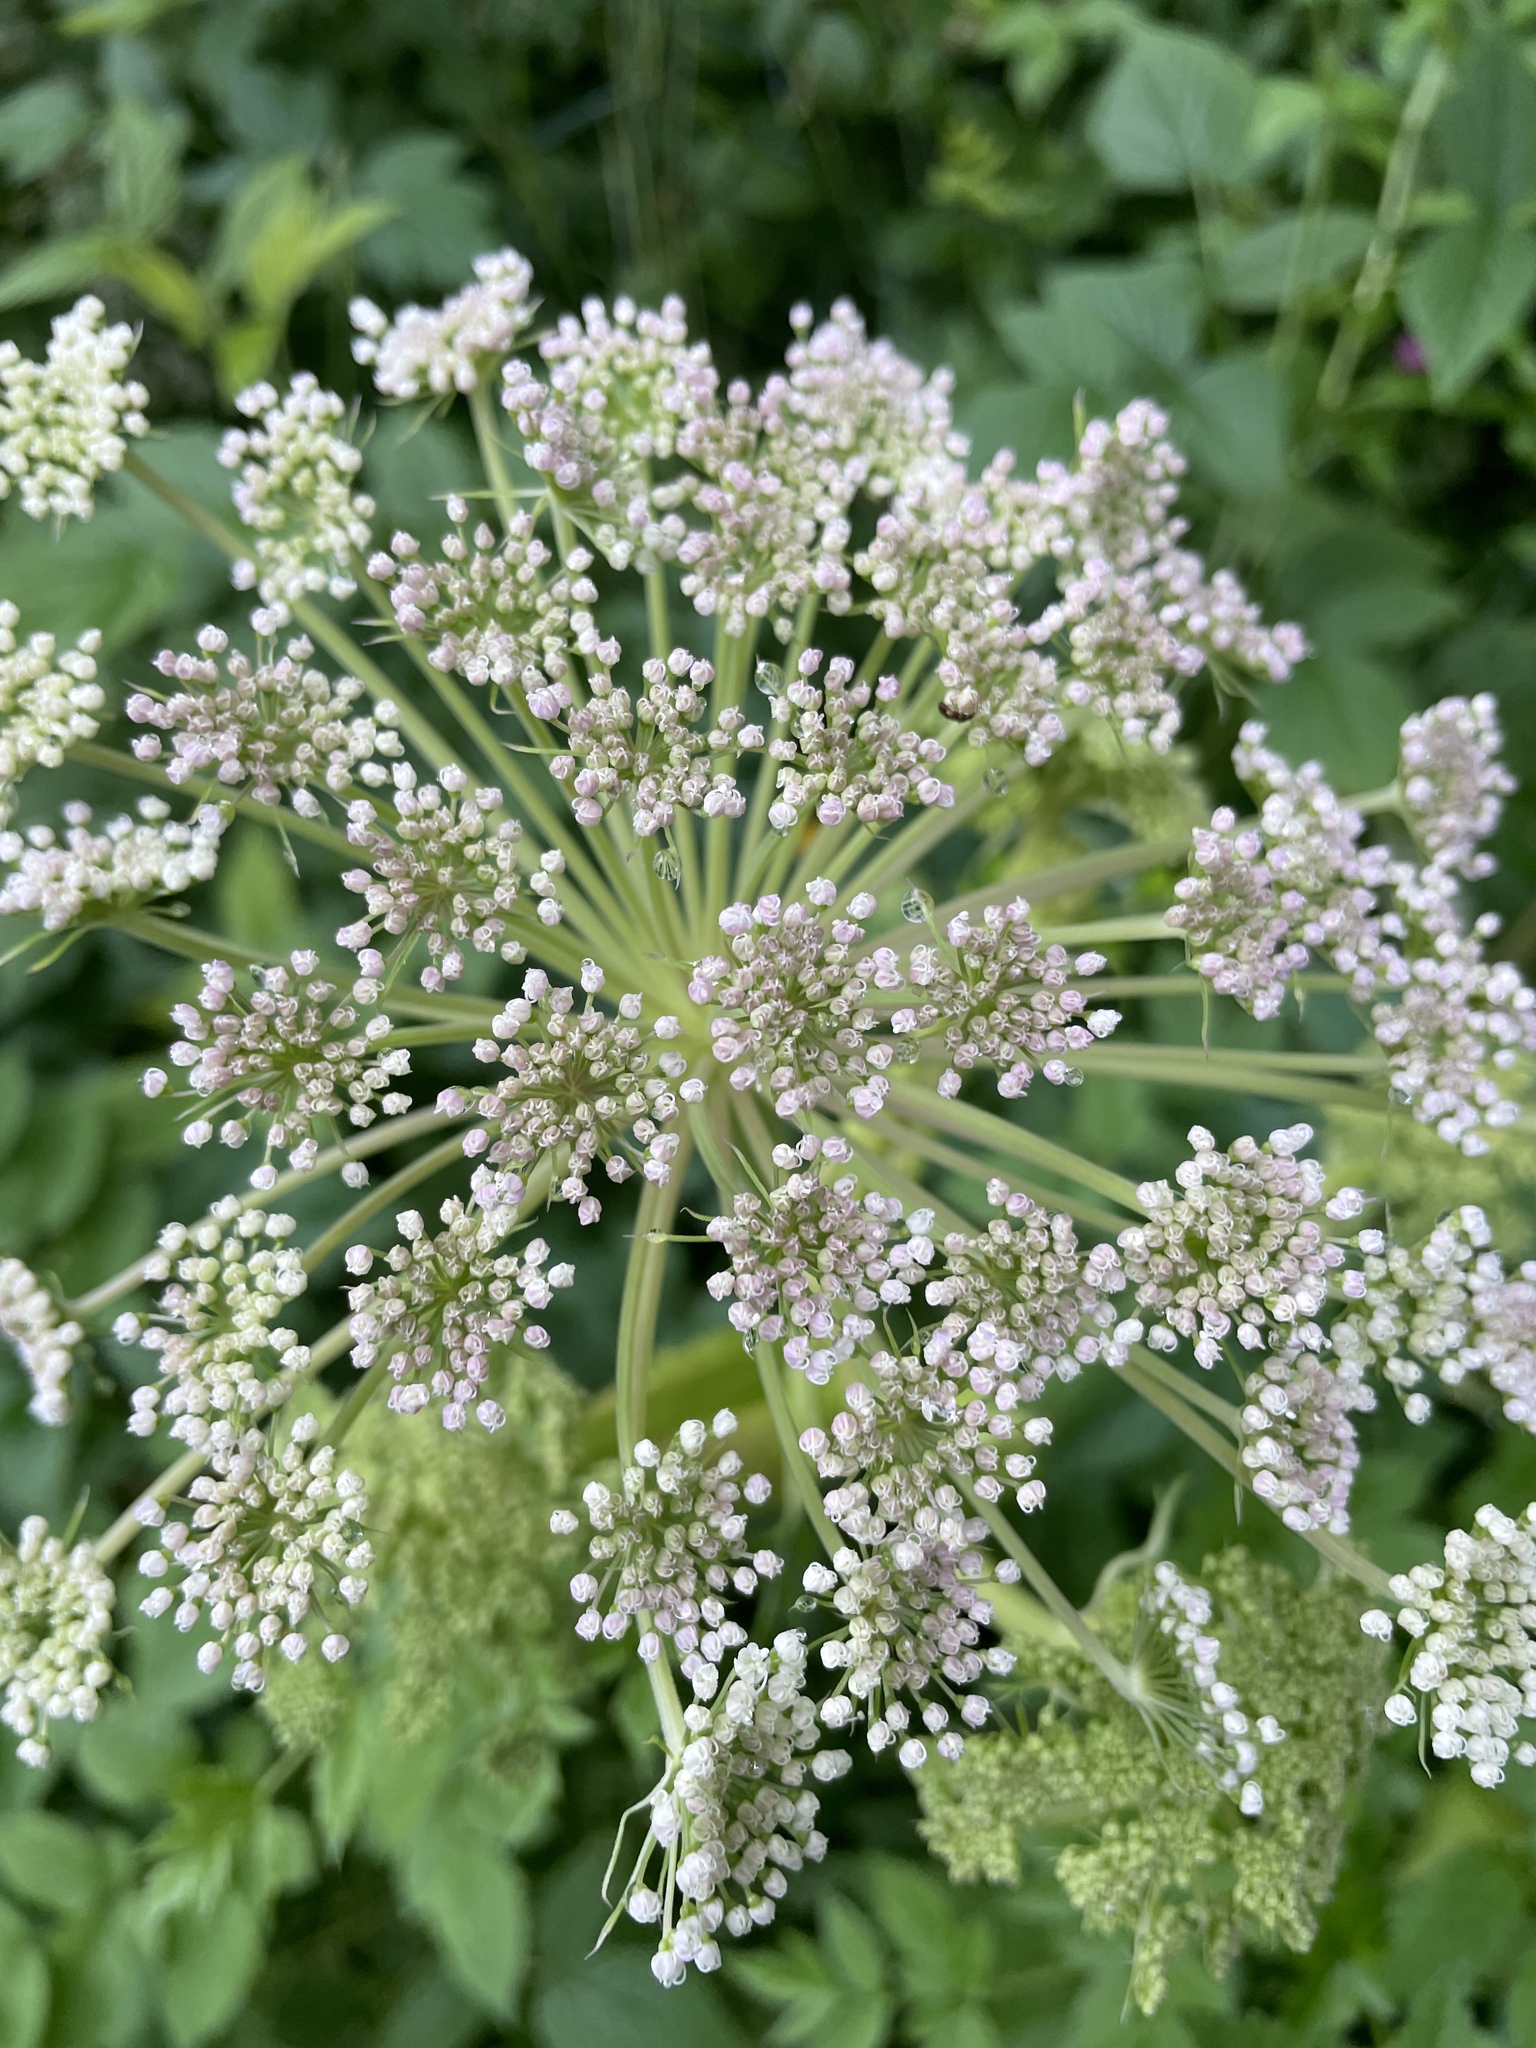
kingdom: Plantae
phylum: Tracheophyta
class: Magnoliopsida
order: Apiales
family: Apiaceae
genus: Angelica
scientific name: Angelica sylvestris
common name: Wild angelica
